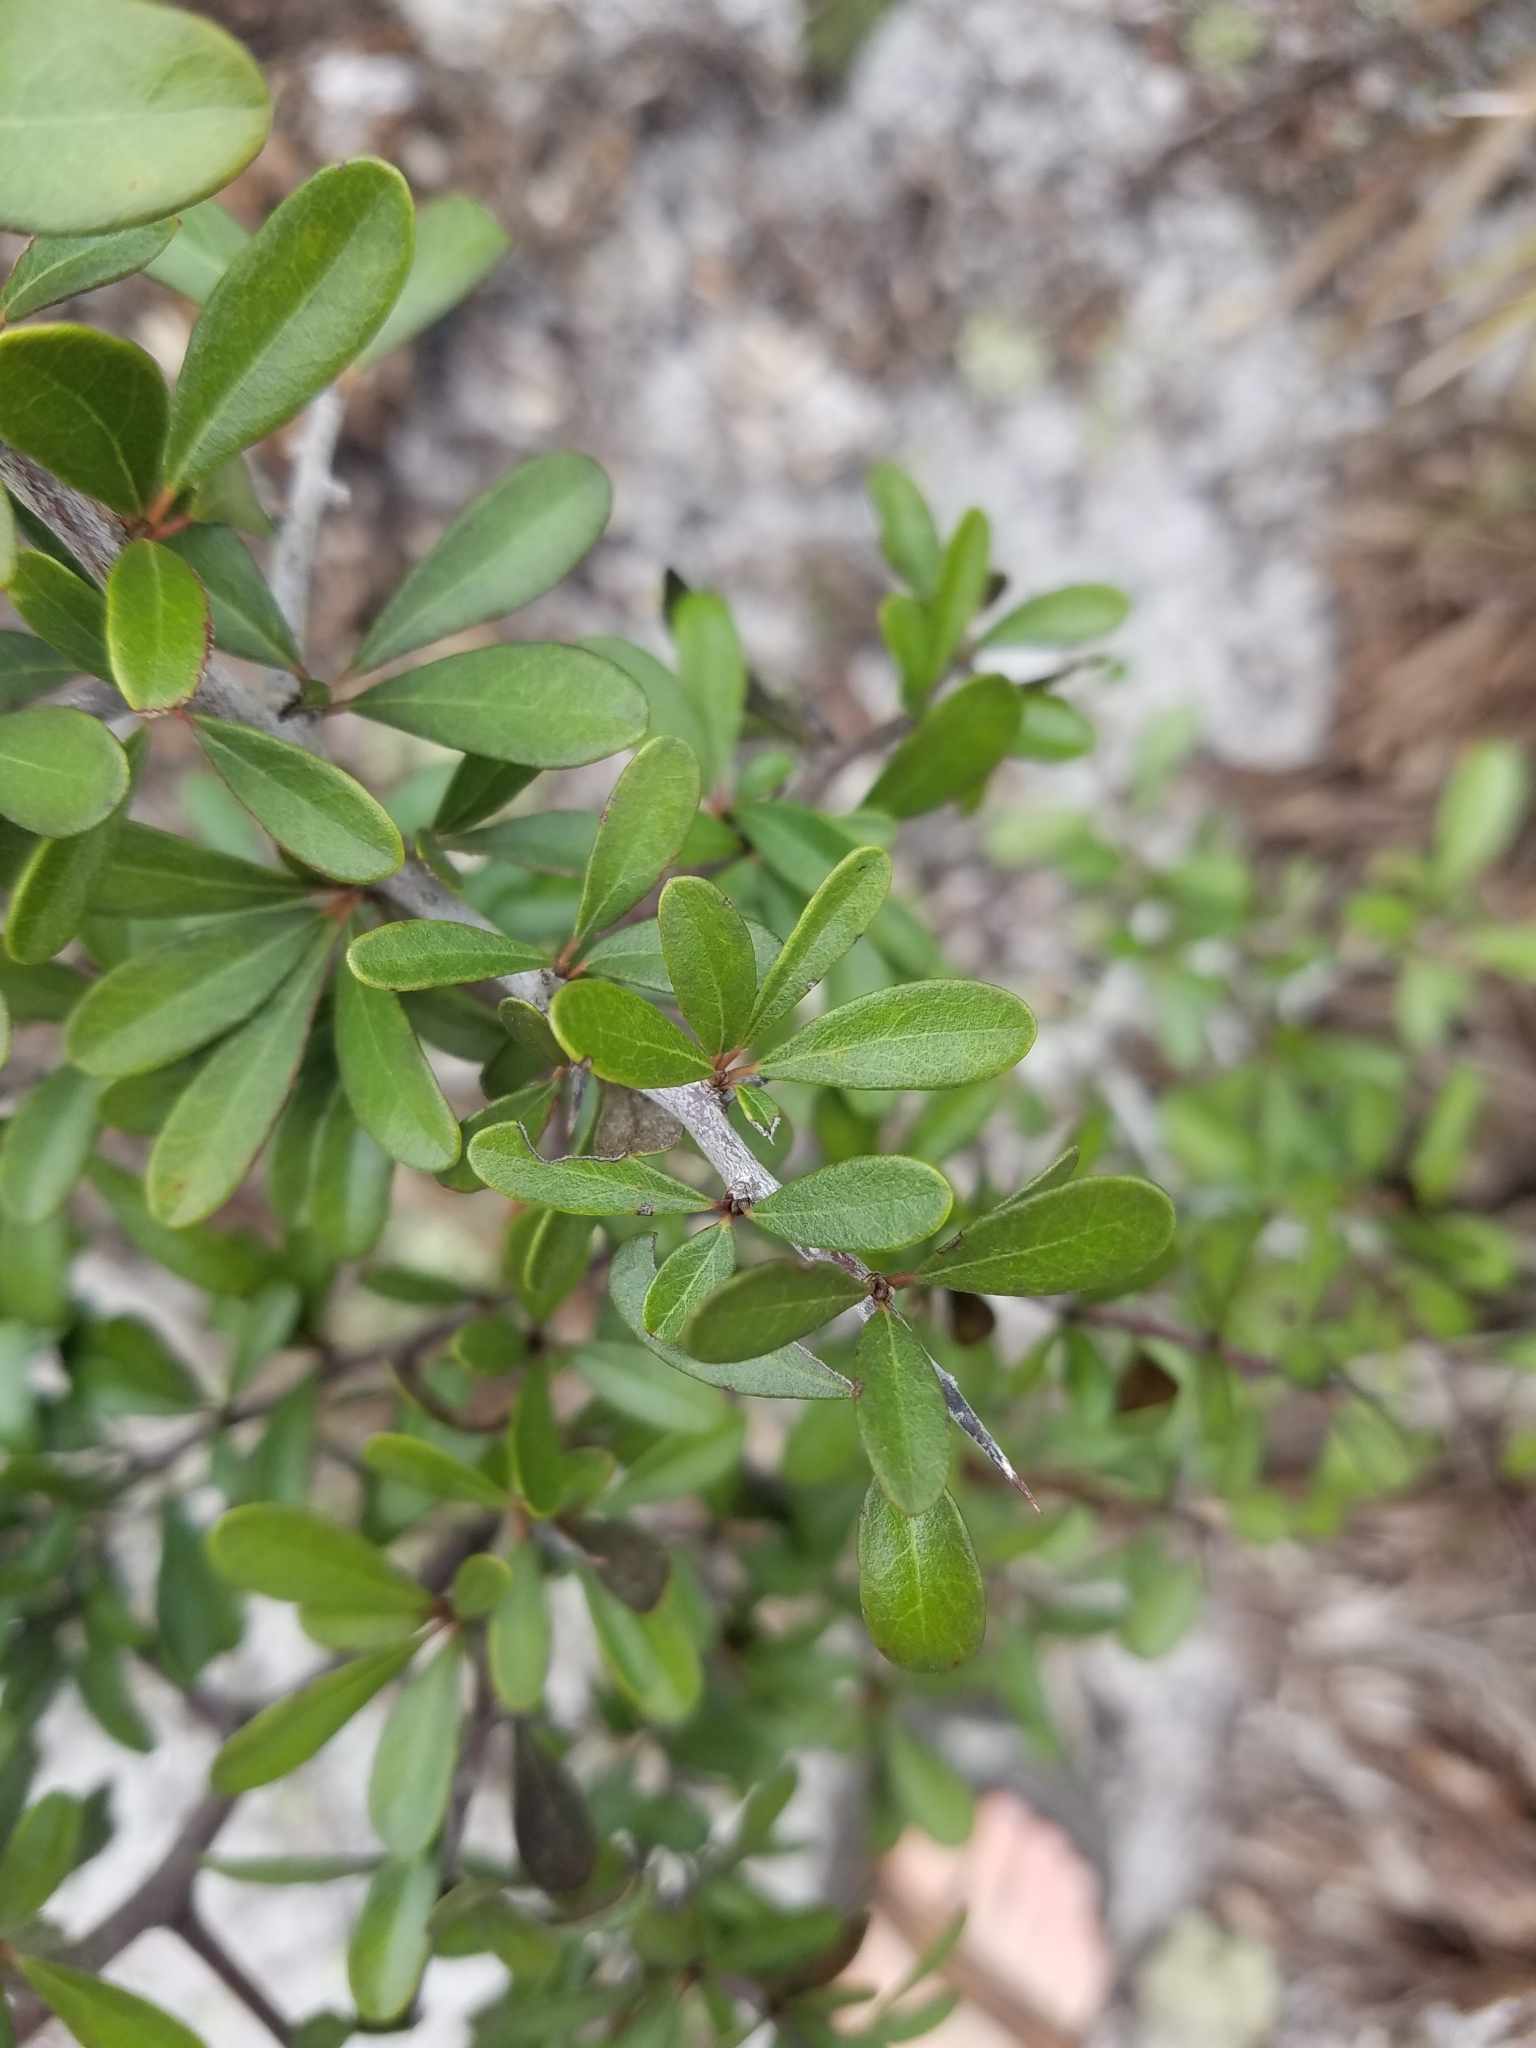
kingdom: Plantae
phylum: Tracheophyta
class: Magnoliopsida
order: Ericales
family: Sapotaceae
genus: Sideroxylon
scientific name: Sideroxylon tenax
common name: Tough-buckthorn
